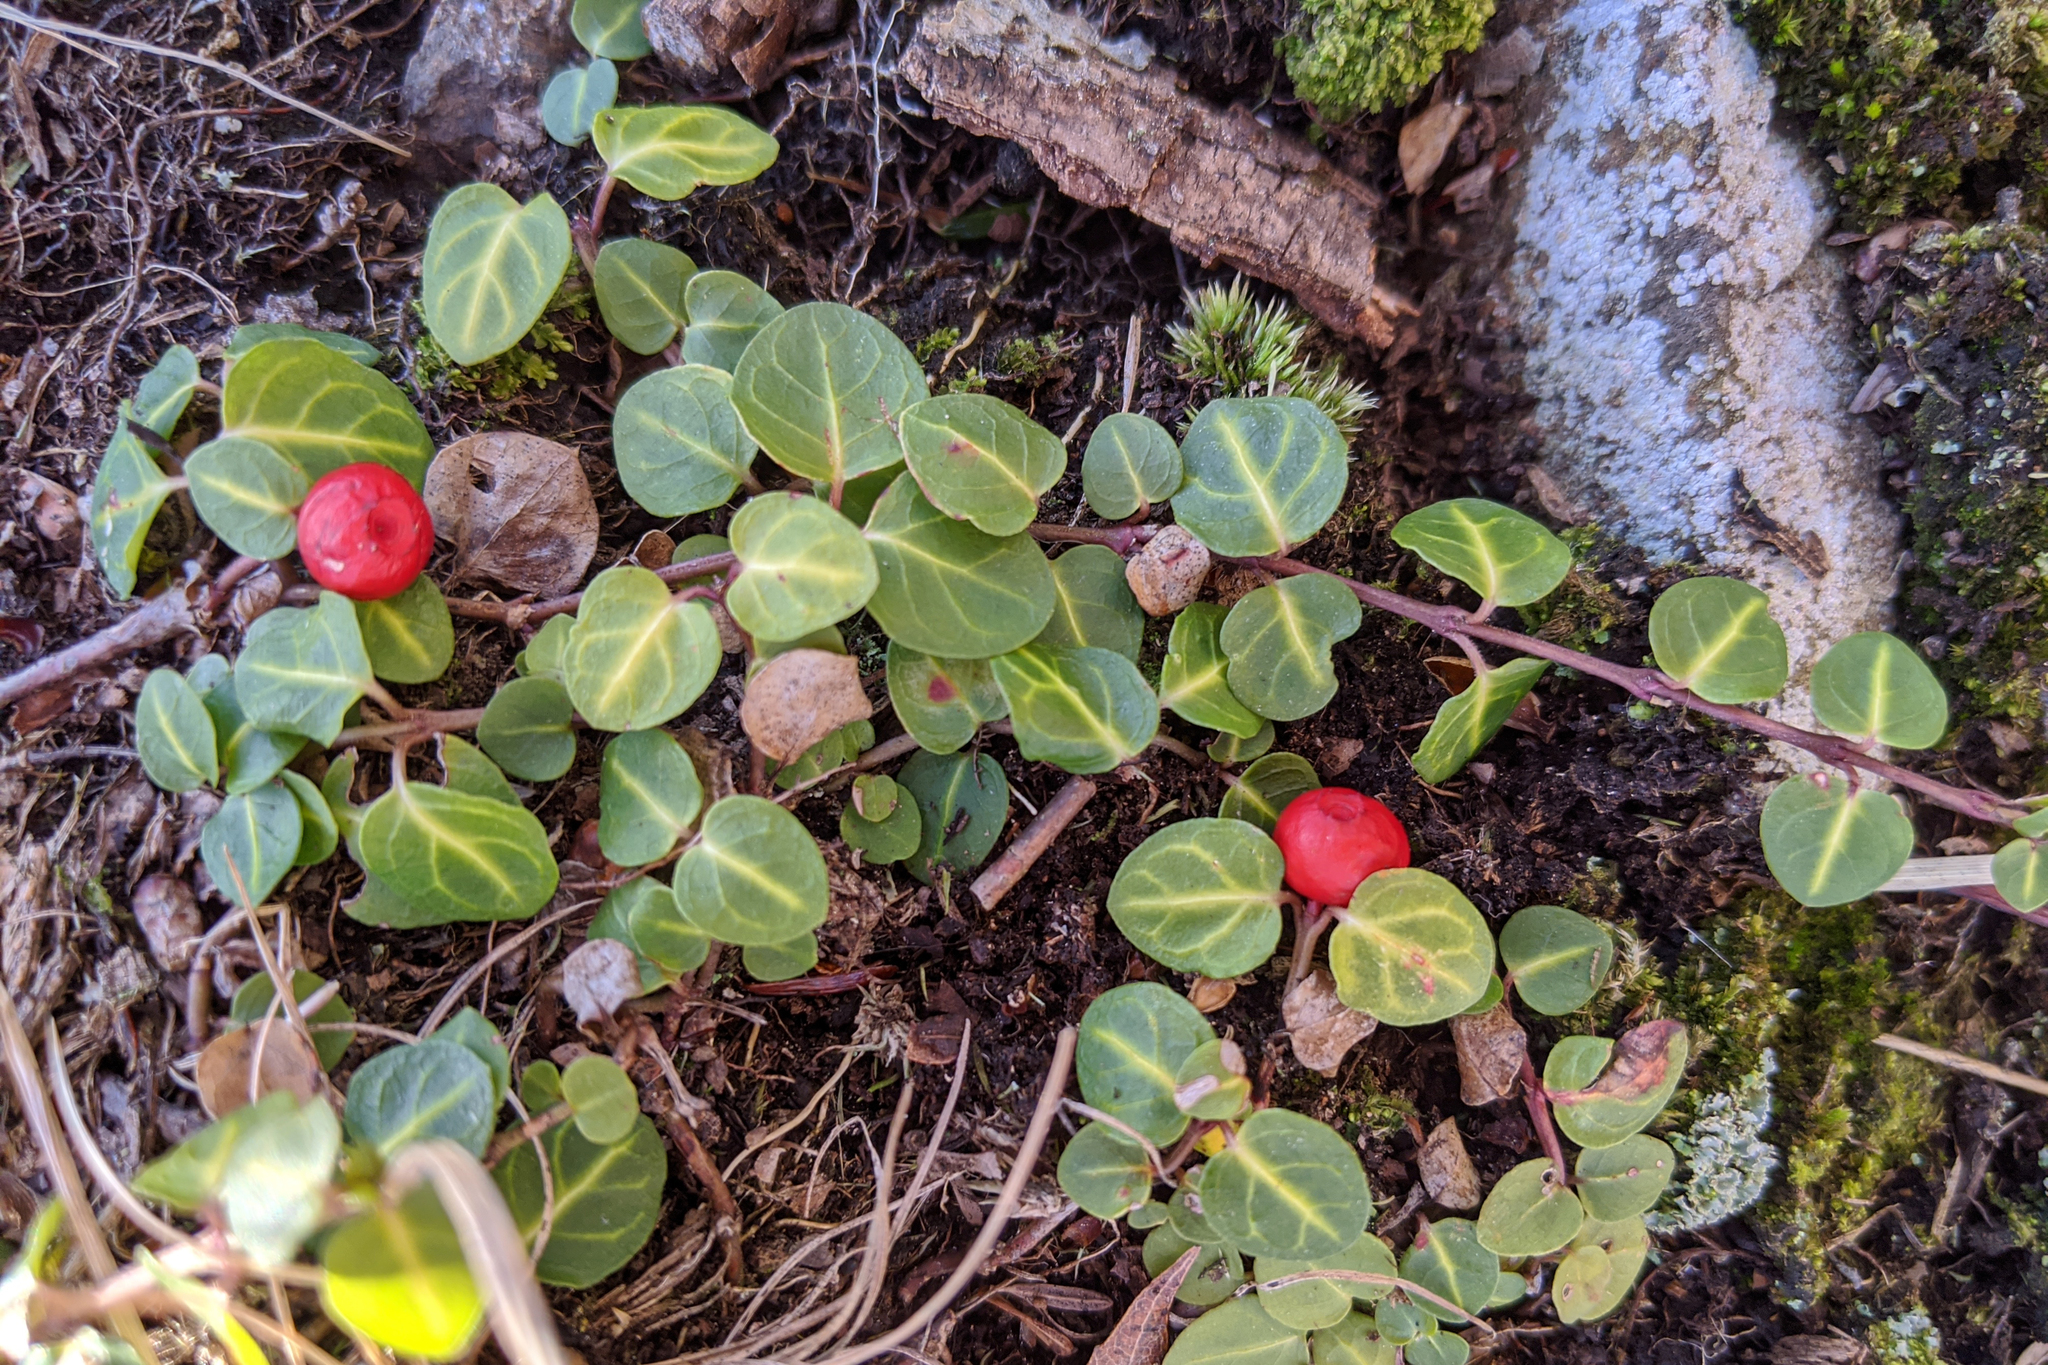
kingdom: Plantae
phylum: Tracheophyta
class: Magnoliopsida
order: Gentianales
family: Rubiaceae
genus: Mitchella
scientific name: Mitchella repens
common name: Partridge-berry
